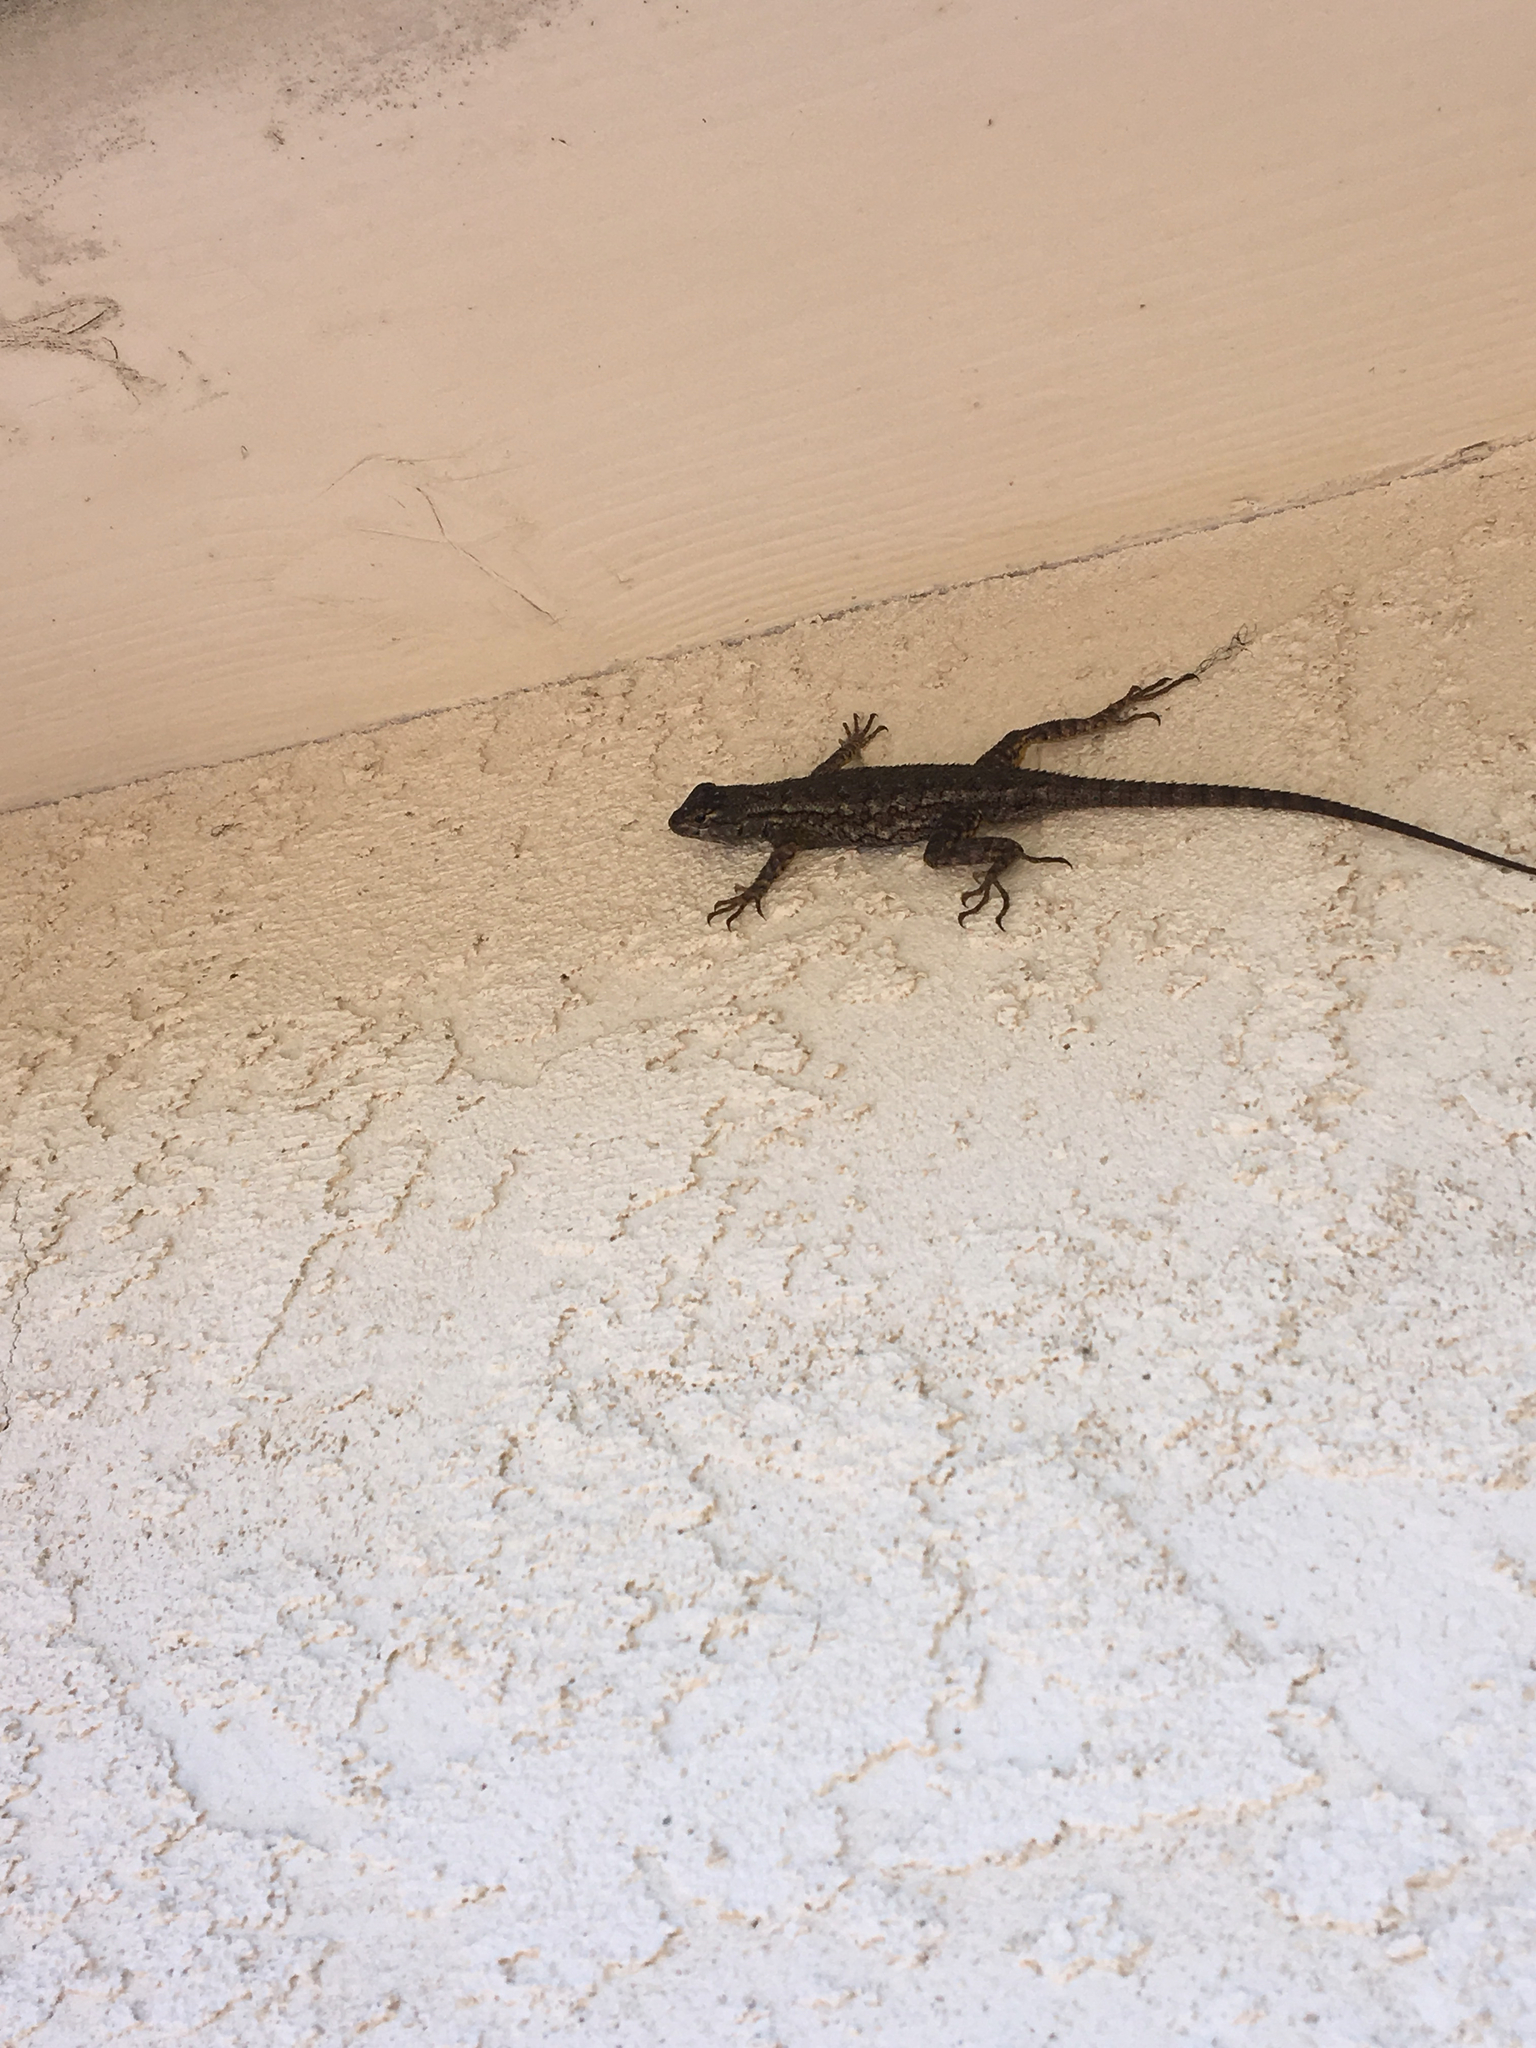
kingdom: Animalia
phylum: Chordata
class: Squamata
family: Phrynosomatidae
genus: Sceloporus
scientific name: Sceloporus occidentalis
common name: Western fence lizard
